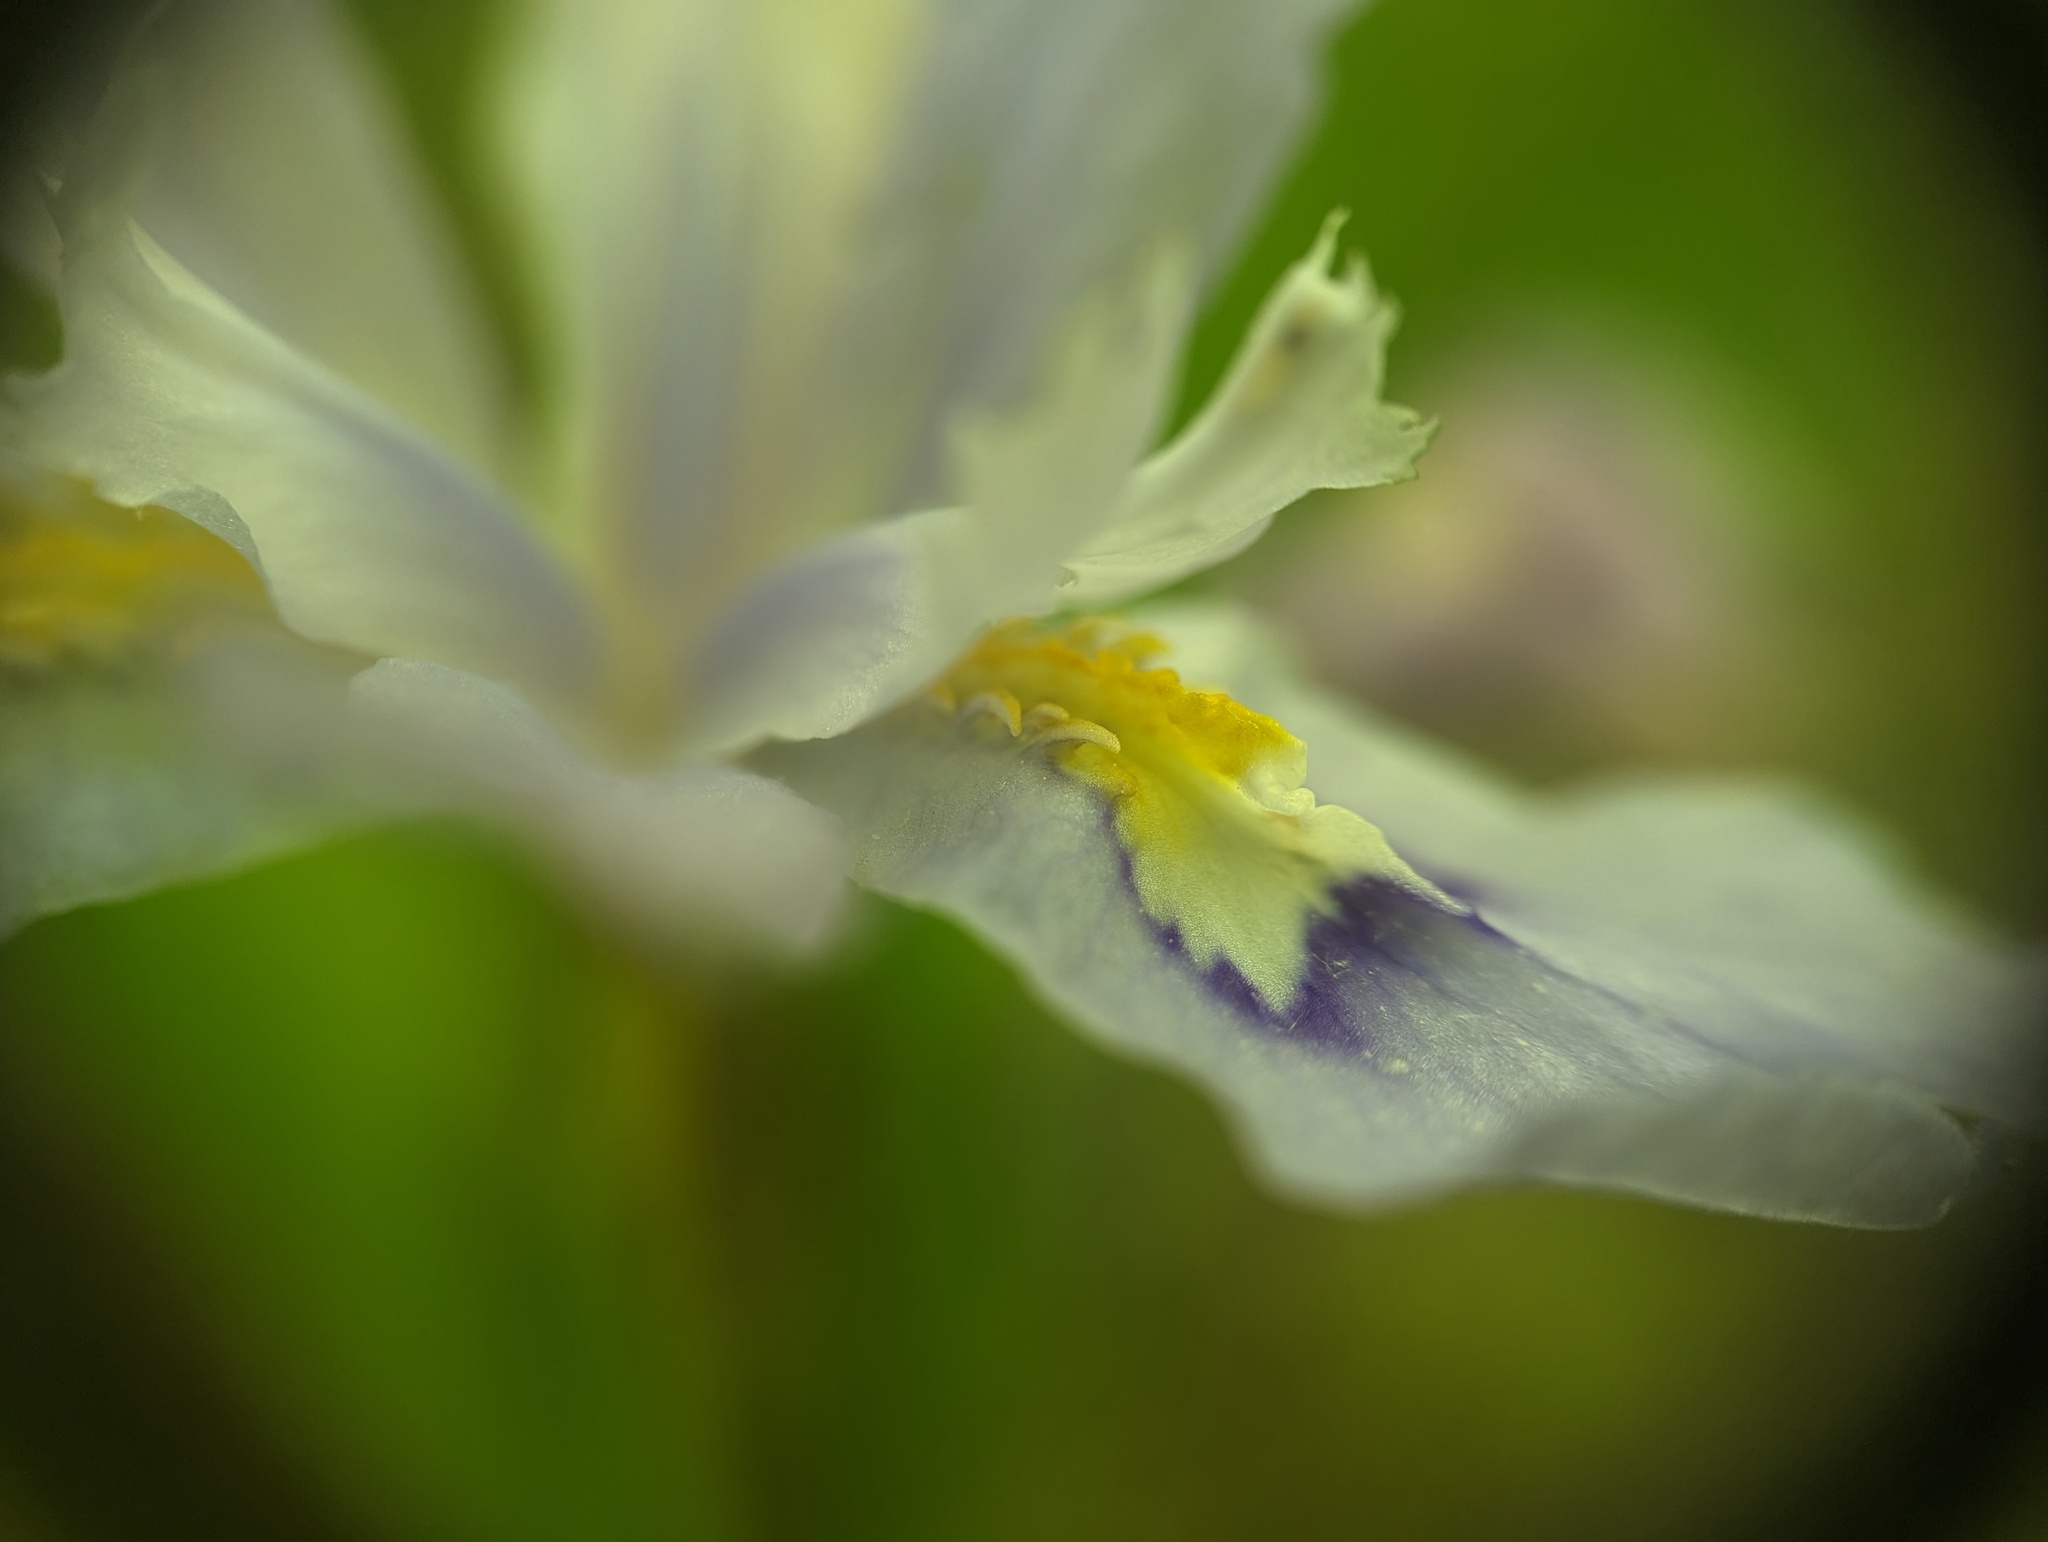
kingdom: Plantae
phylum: Tracheophyta
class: Liliopsida
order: Asparagales
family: Iridaceae
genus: Iris
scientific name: Iris cristata
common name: Crested iris
